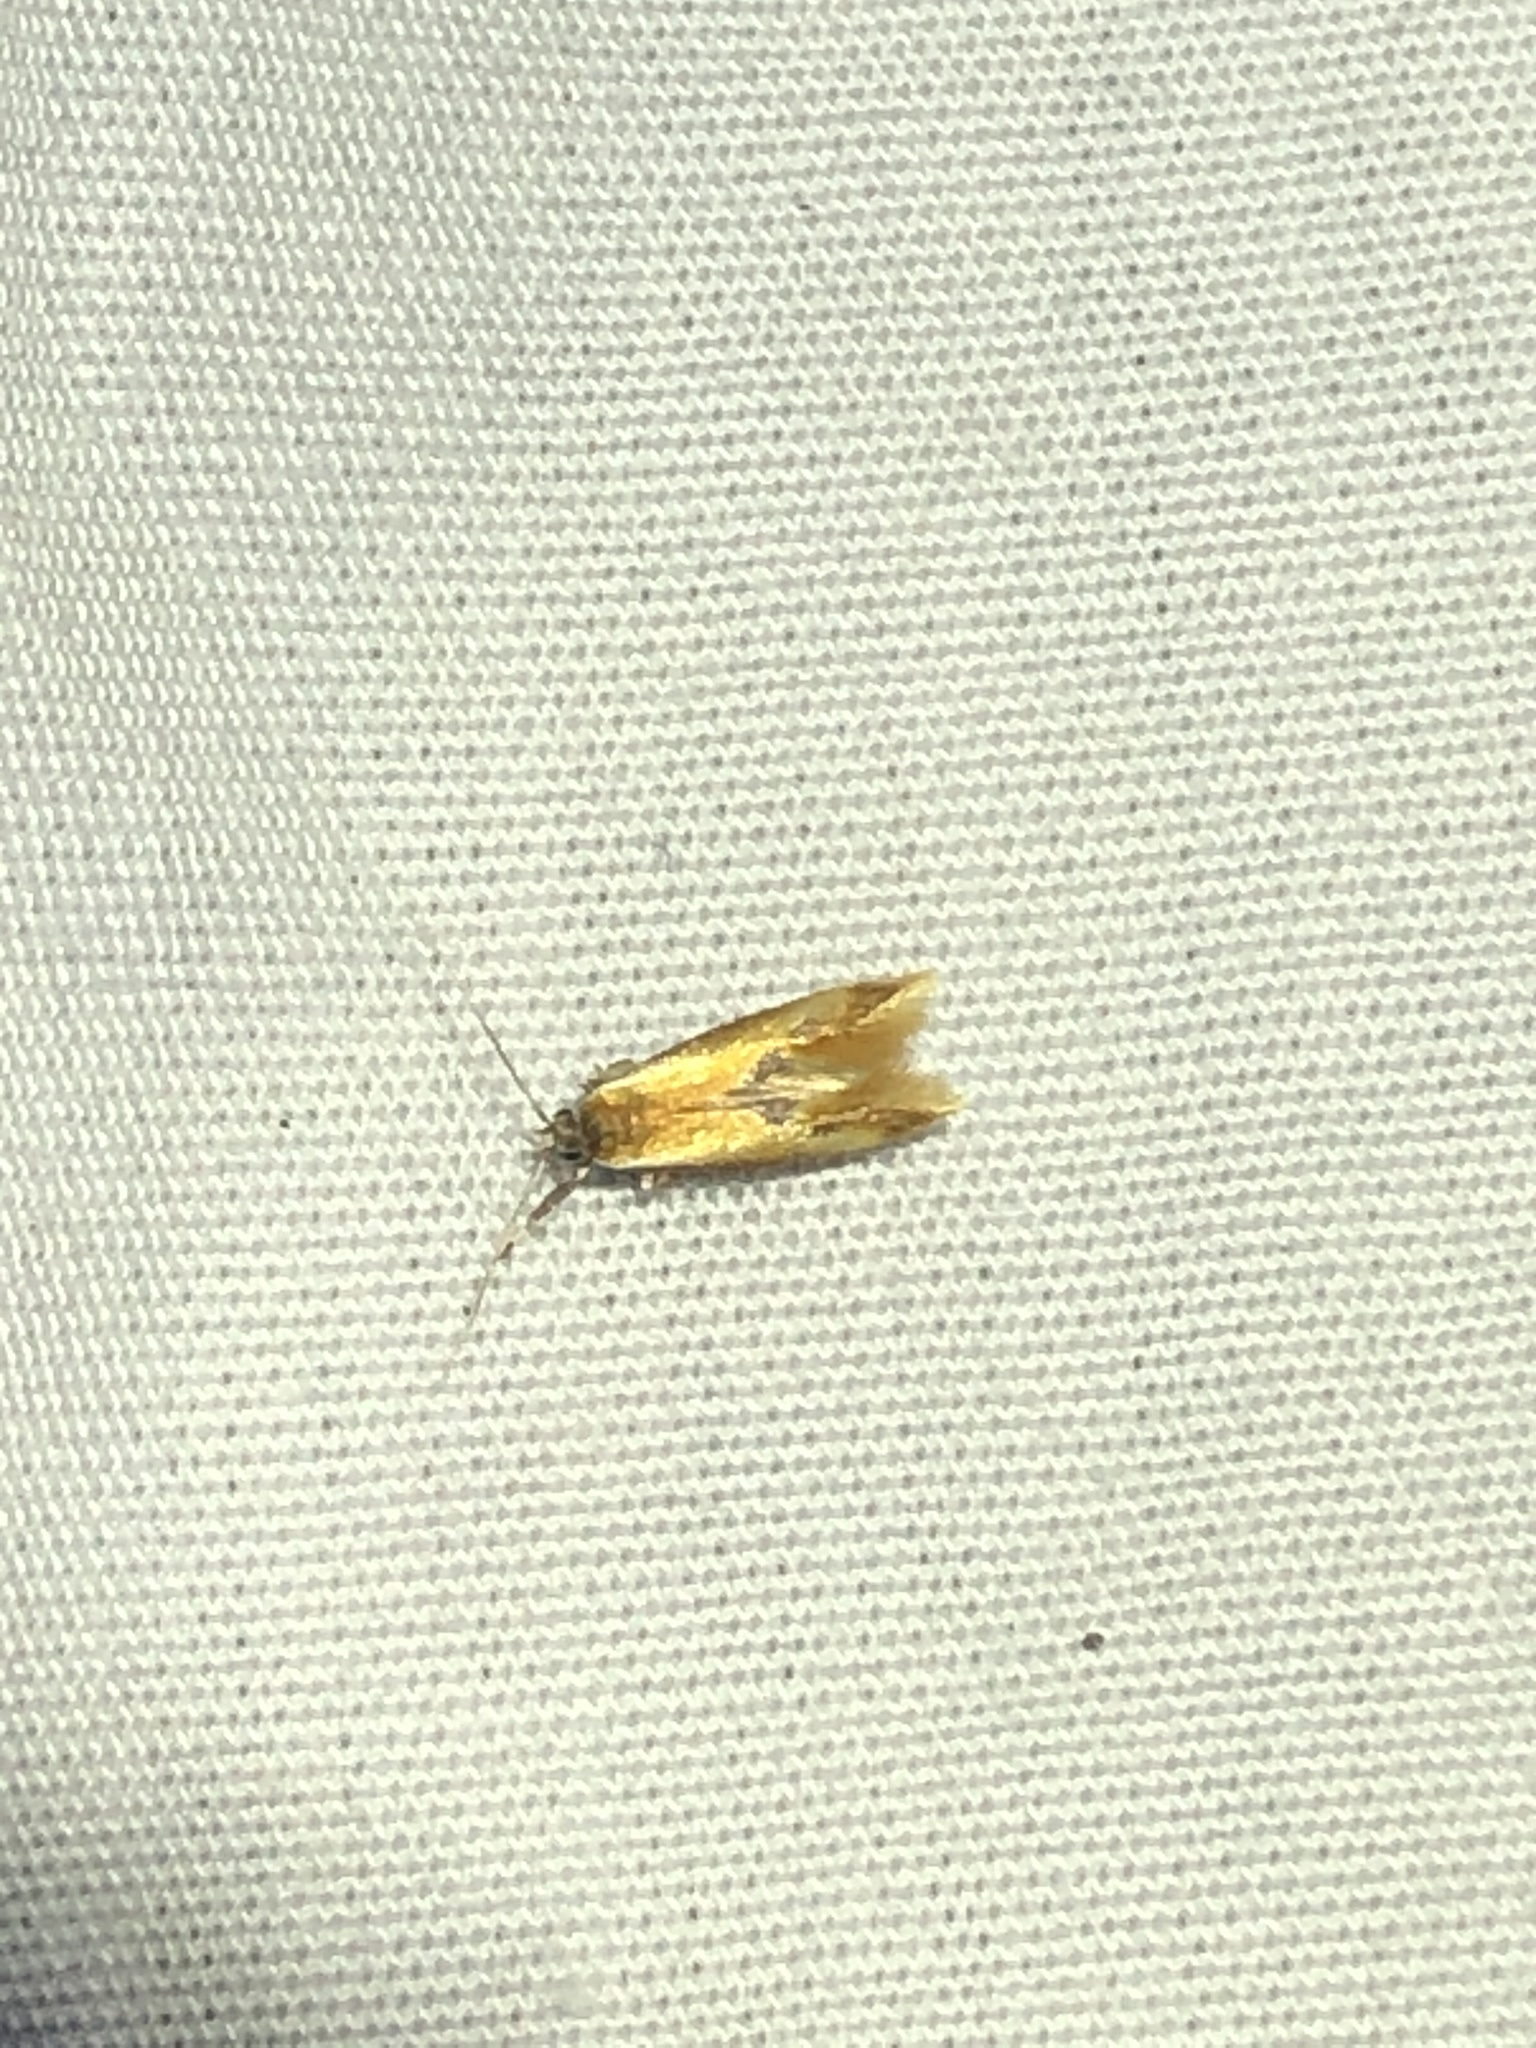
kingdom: Animalia
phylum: Arthropoda
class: Insecta
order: Lepidoptera
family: Oecophoridae
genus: Batia
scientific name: Batia lunaris
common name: Moth
